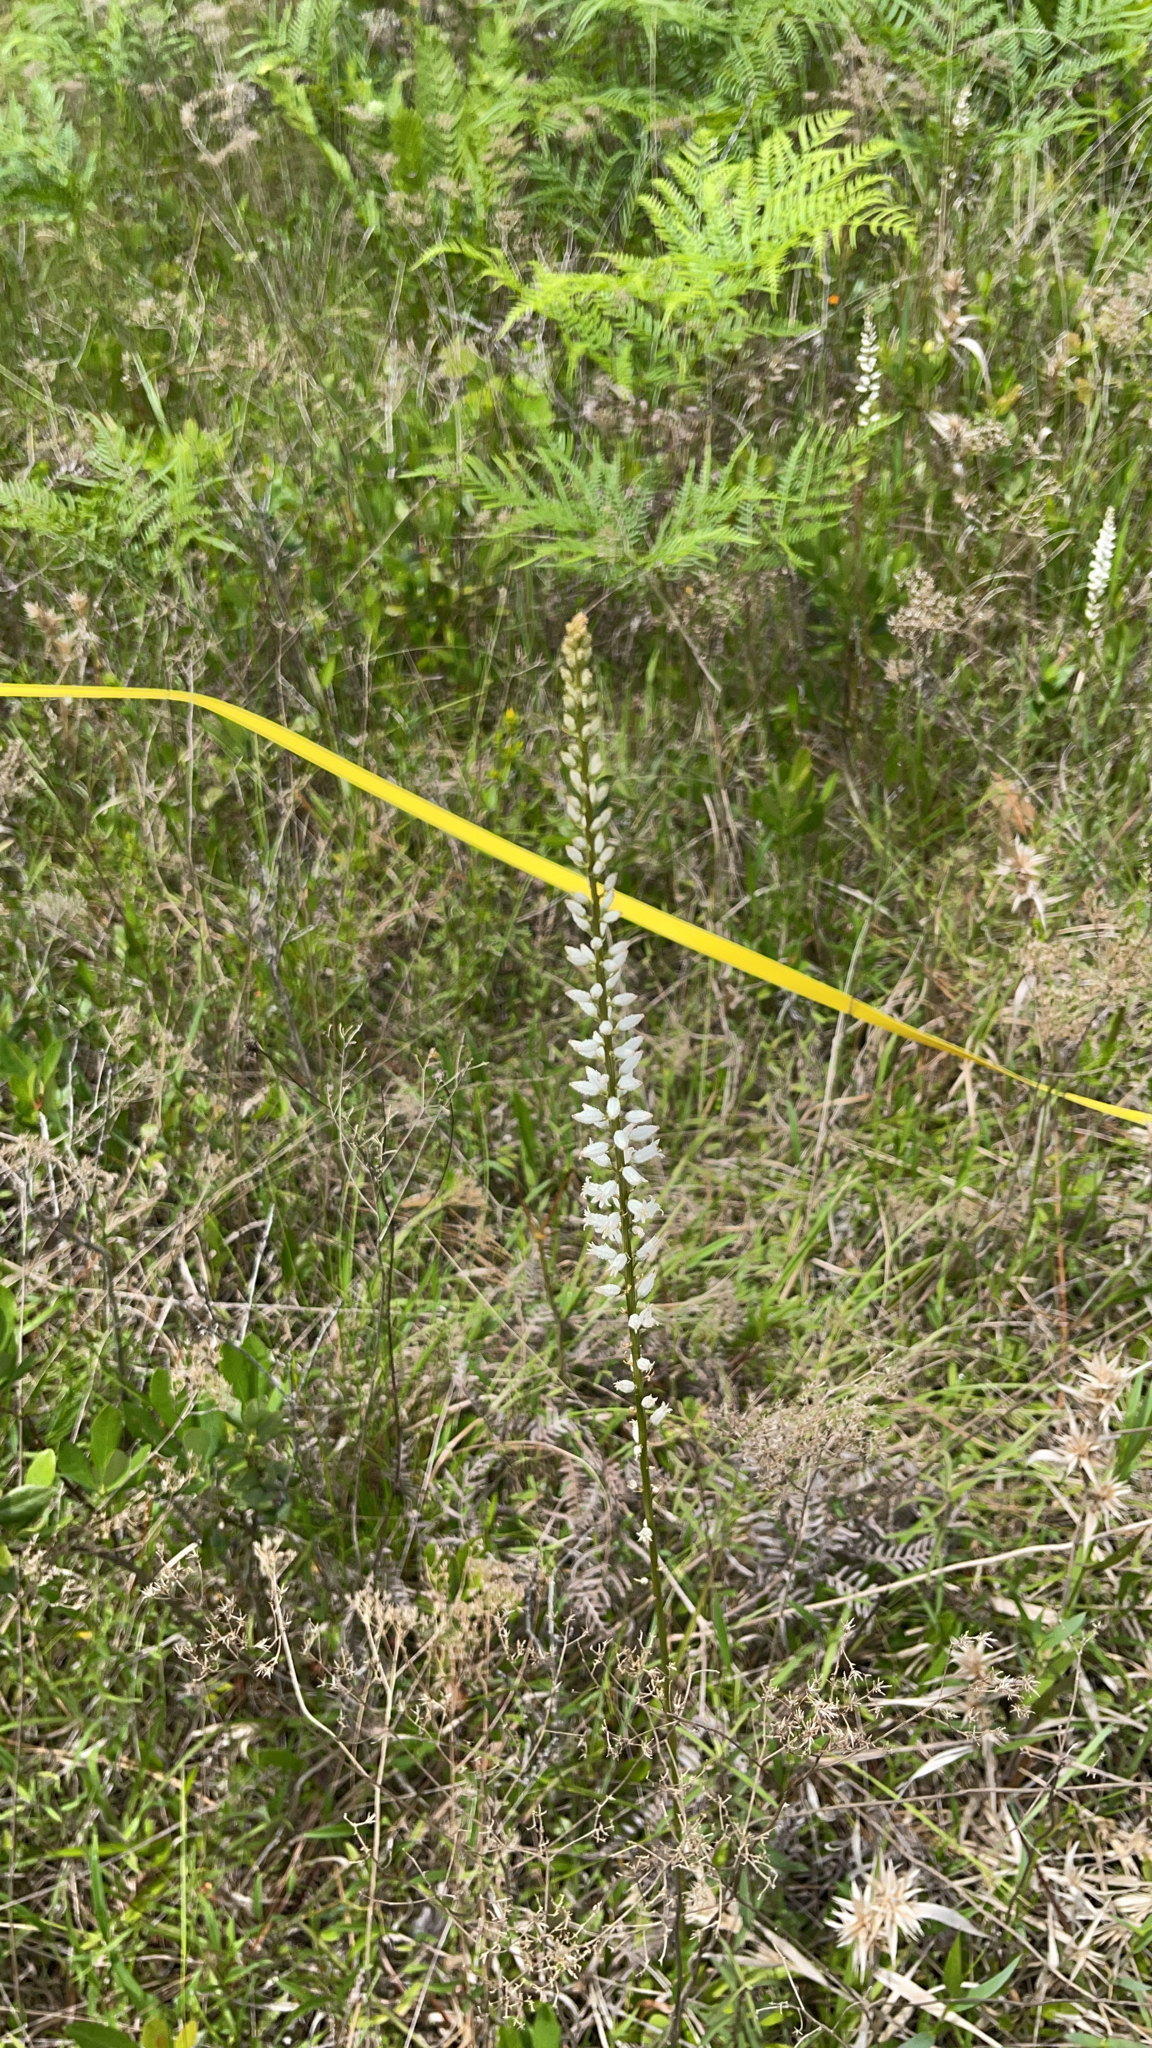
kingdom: Plantae
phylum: Tracheophyta
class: Liliopsida
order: Dioscoreales
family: Nartheciaceae
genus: Aletris
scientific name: Aletris farinosa
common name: Colicroot
